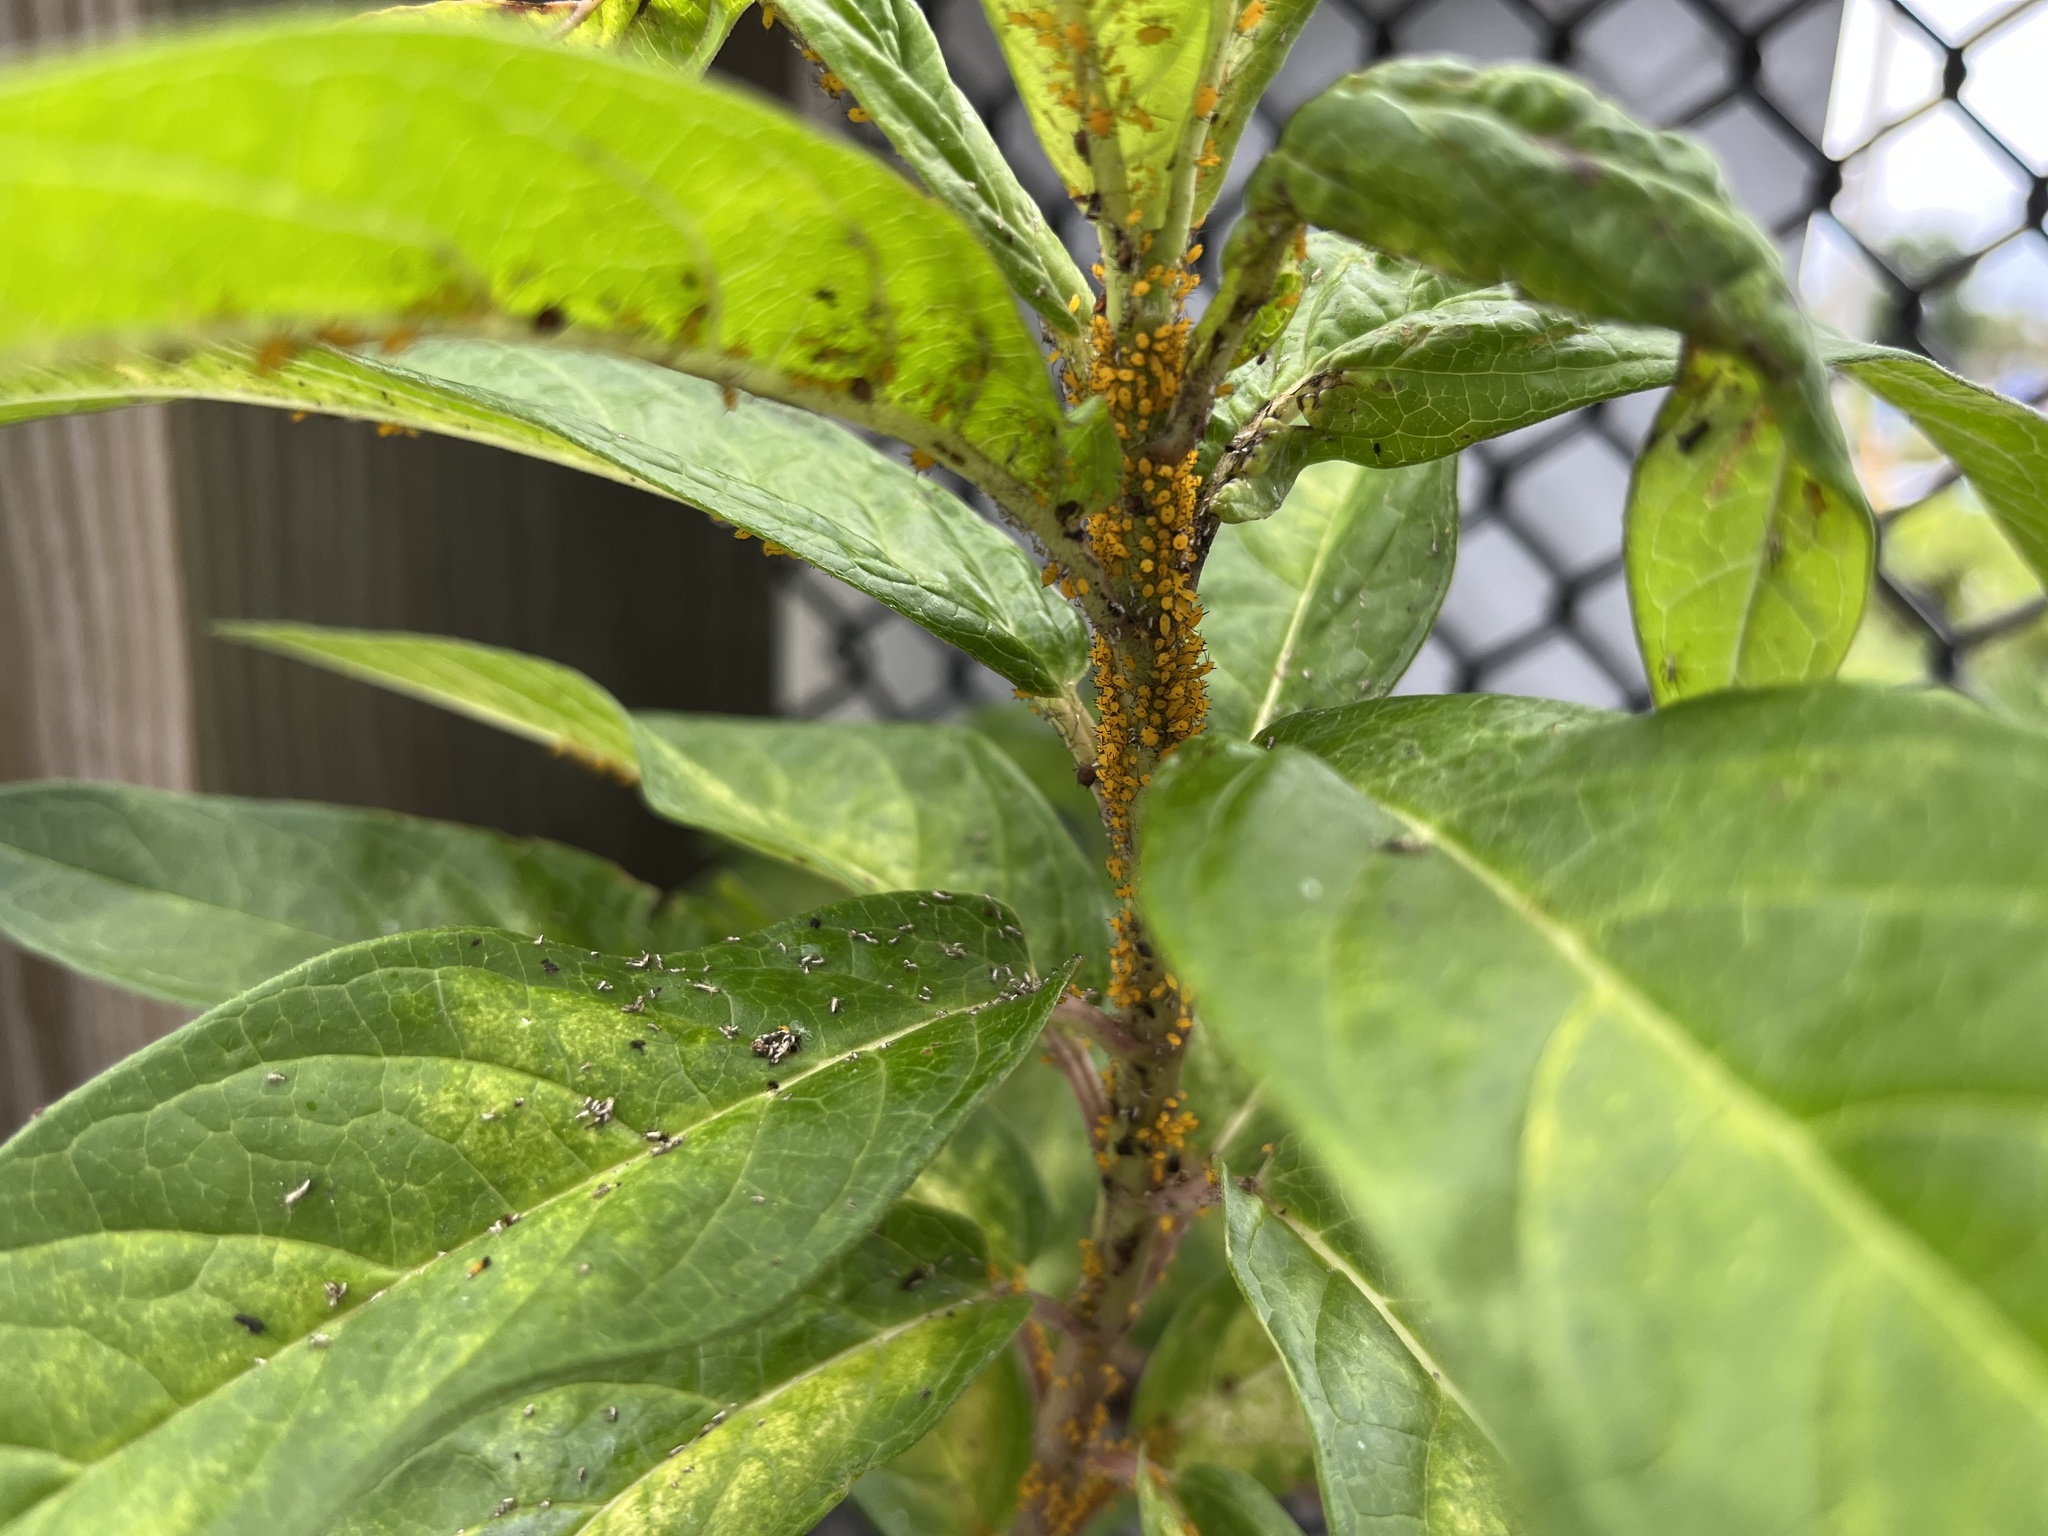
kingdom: Animalia
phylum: Arthropoda
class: Insecta
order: Hemiptera
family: Aphididae
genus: Aphis
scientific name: Aphis nerii
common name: Oleander aphid
